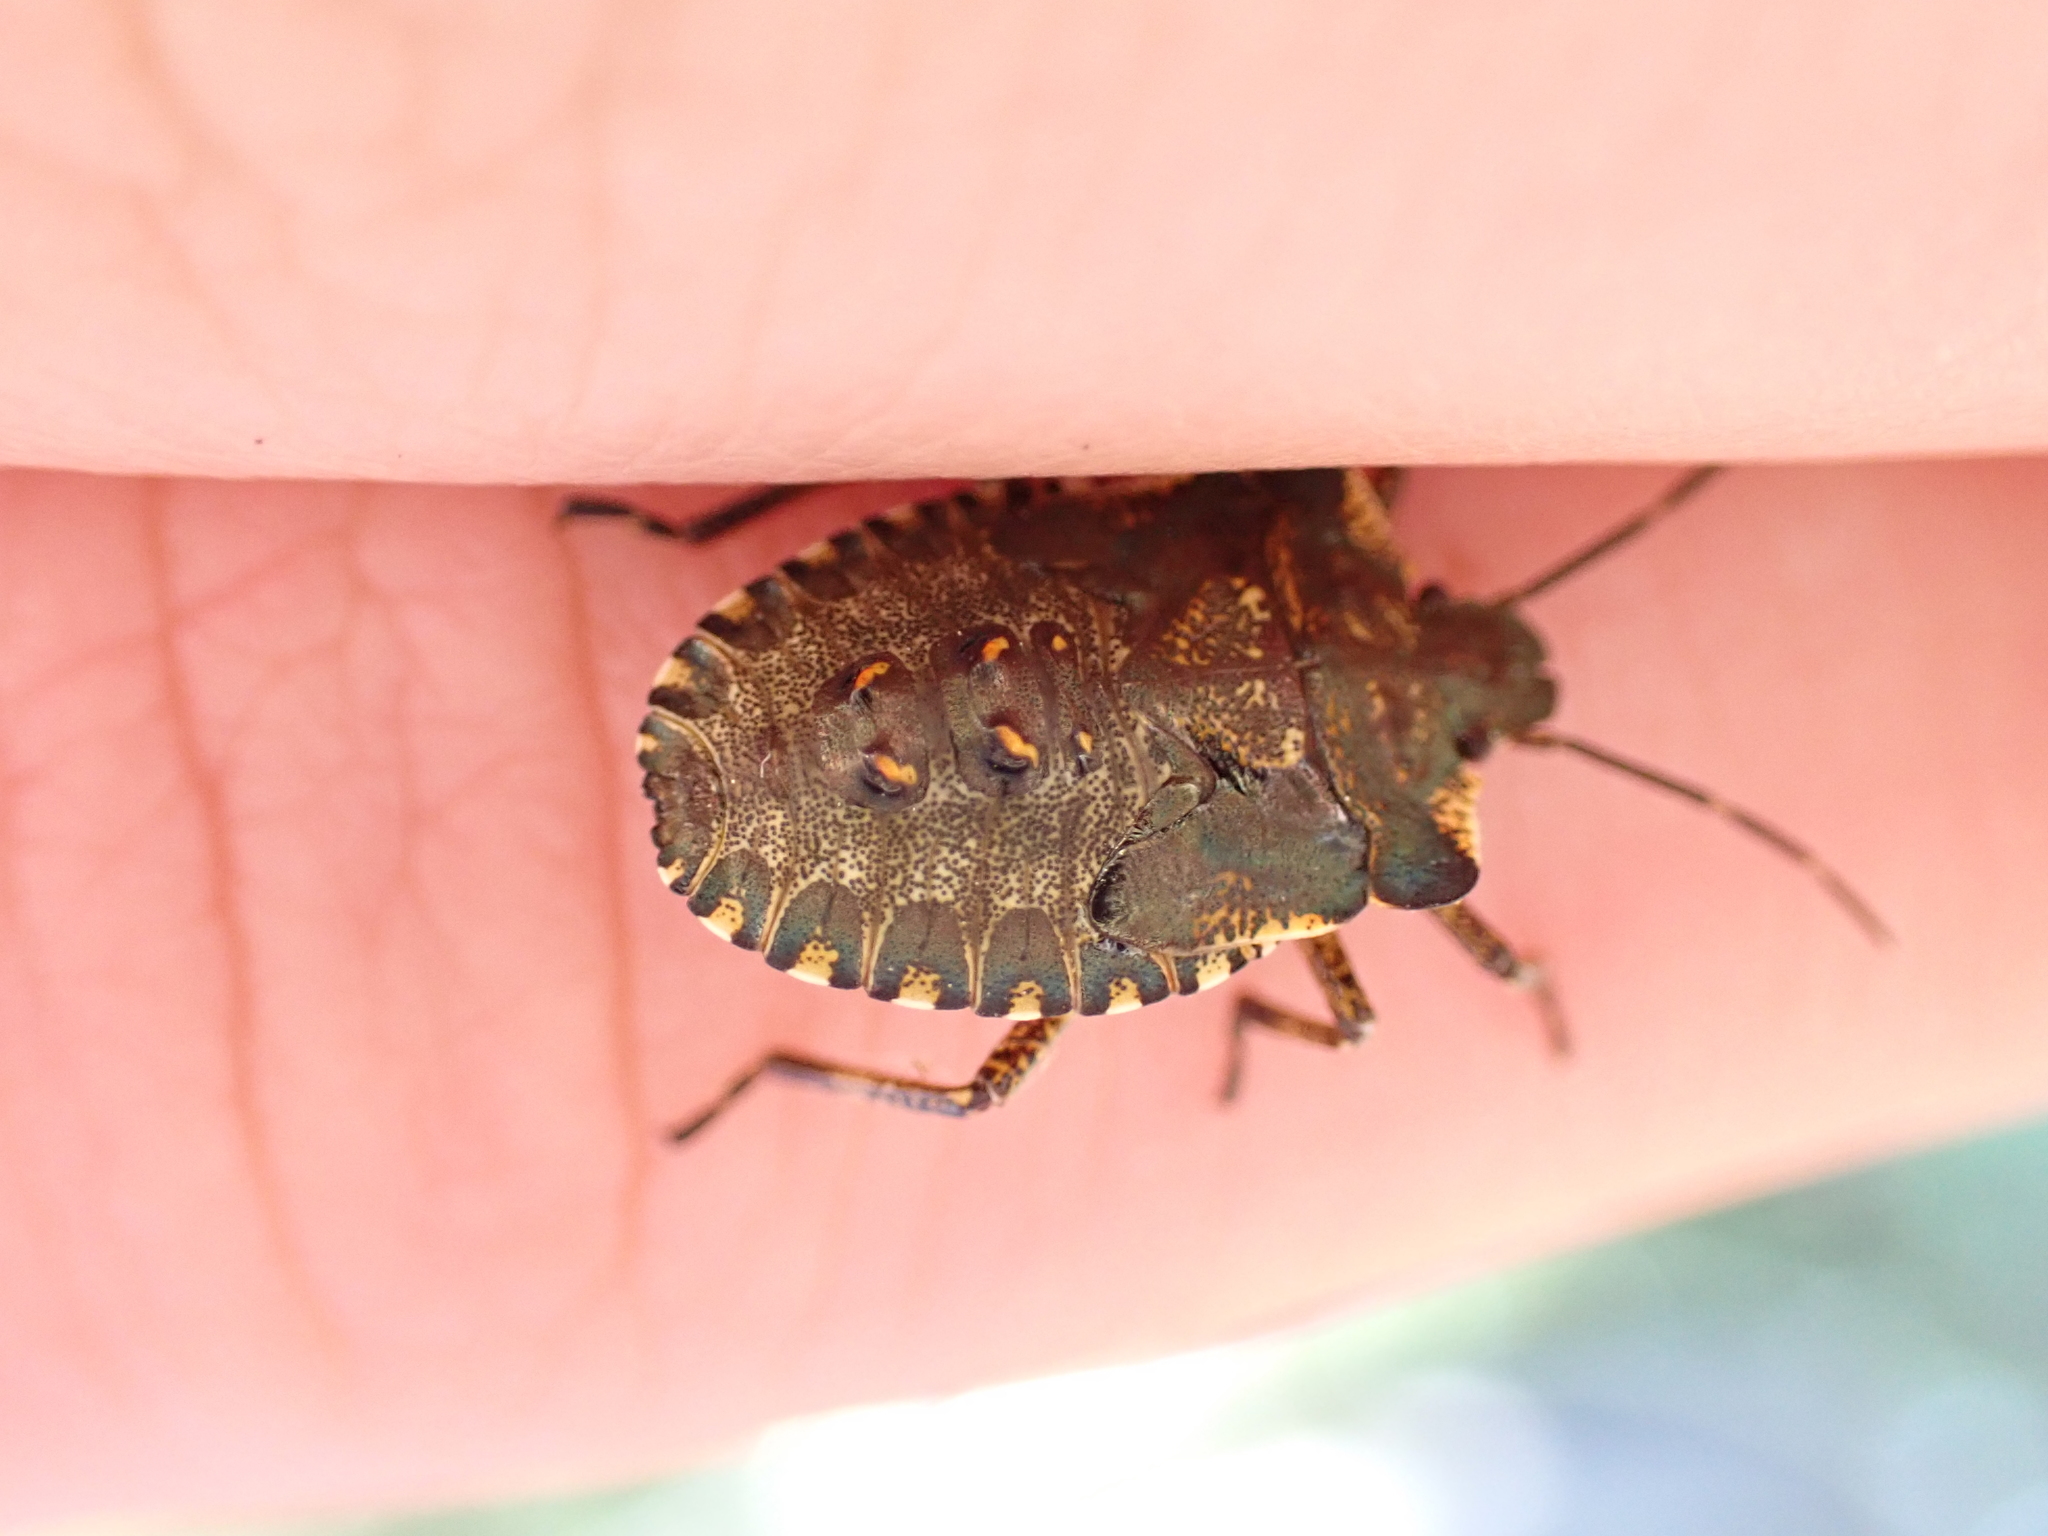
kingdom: Animalia
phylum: Arthropoda
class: Insecta
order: Hemiptera
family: Pentatomidae
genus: Pentatoma
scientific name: Pentatoma rufipes
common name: Forest bug
